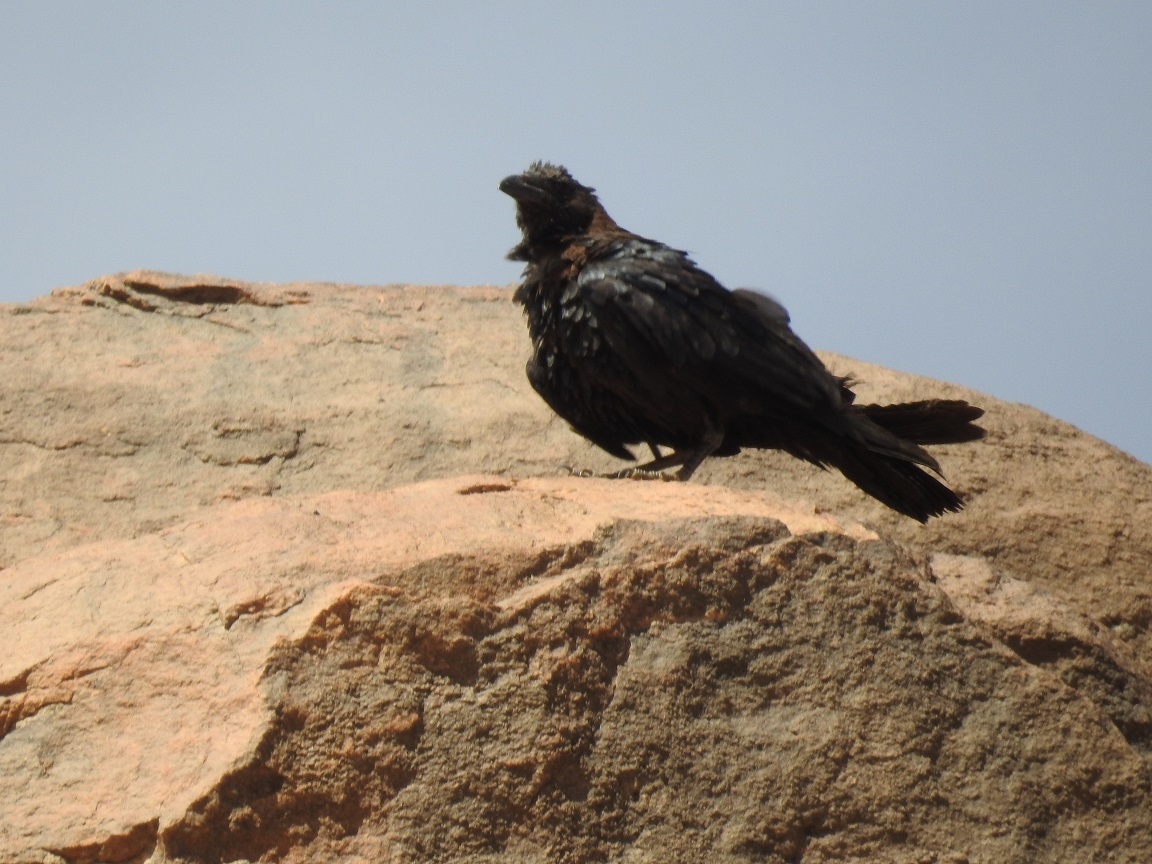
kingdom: Animalia
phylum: Chordata
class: Aves
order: Passeriformes
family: Corvidae
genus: Corvus
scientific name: Corvus ruficollis
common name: Brown-necked raven
